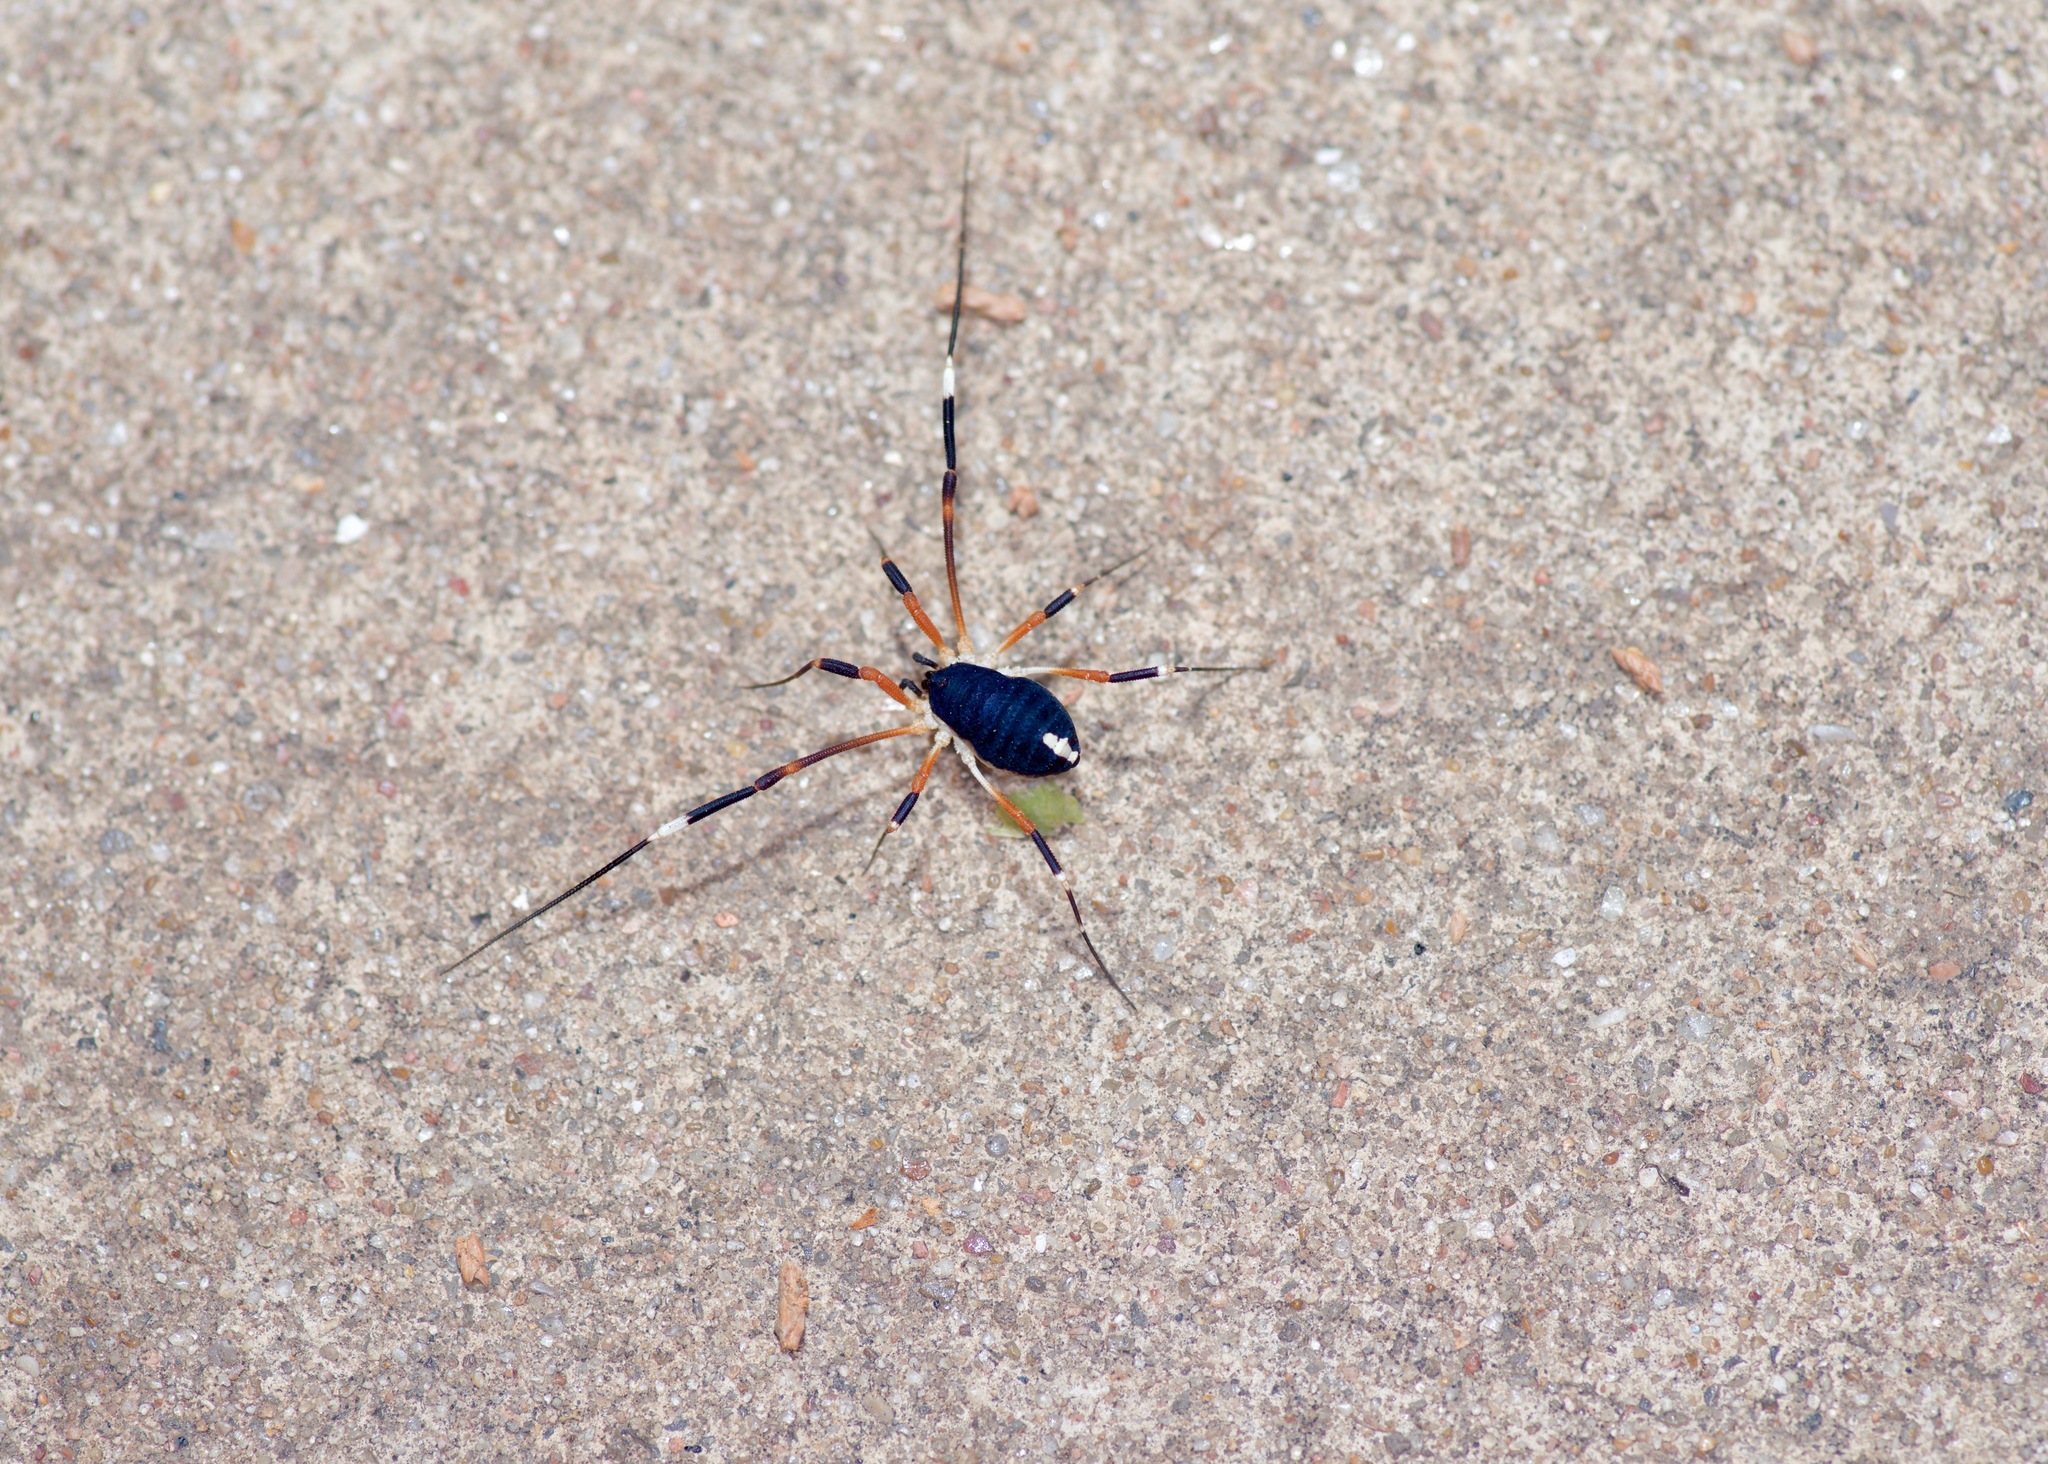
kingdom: Animalia
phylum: Arthropoda
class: Arachnida
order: Opiliones
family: Globipedidae
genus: Dalquestia
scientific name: Dalquestia formosa
